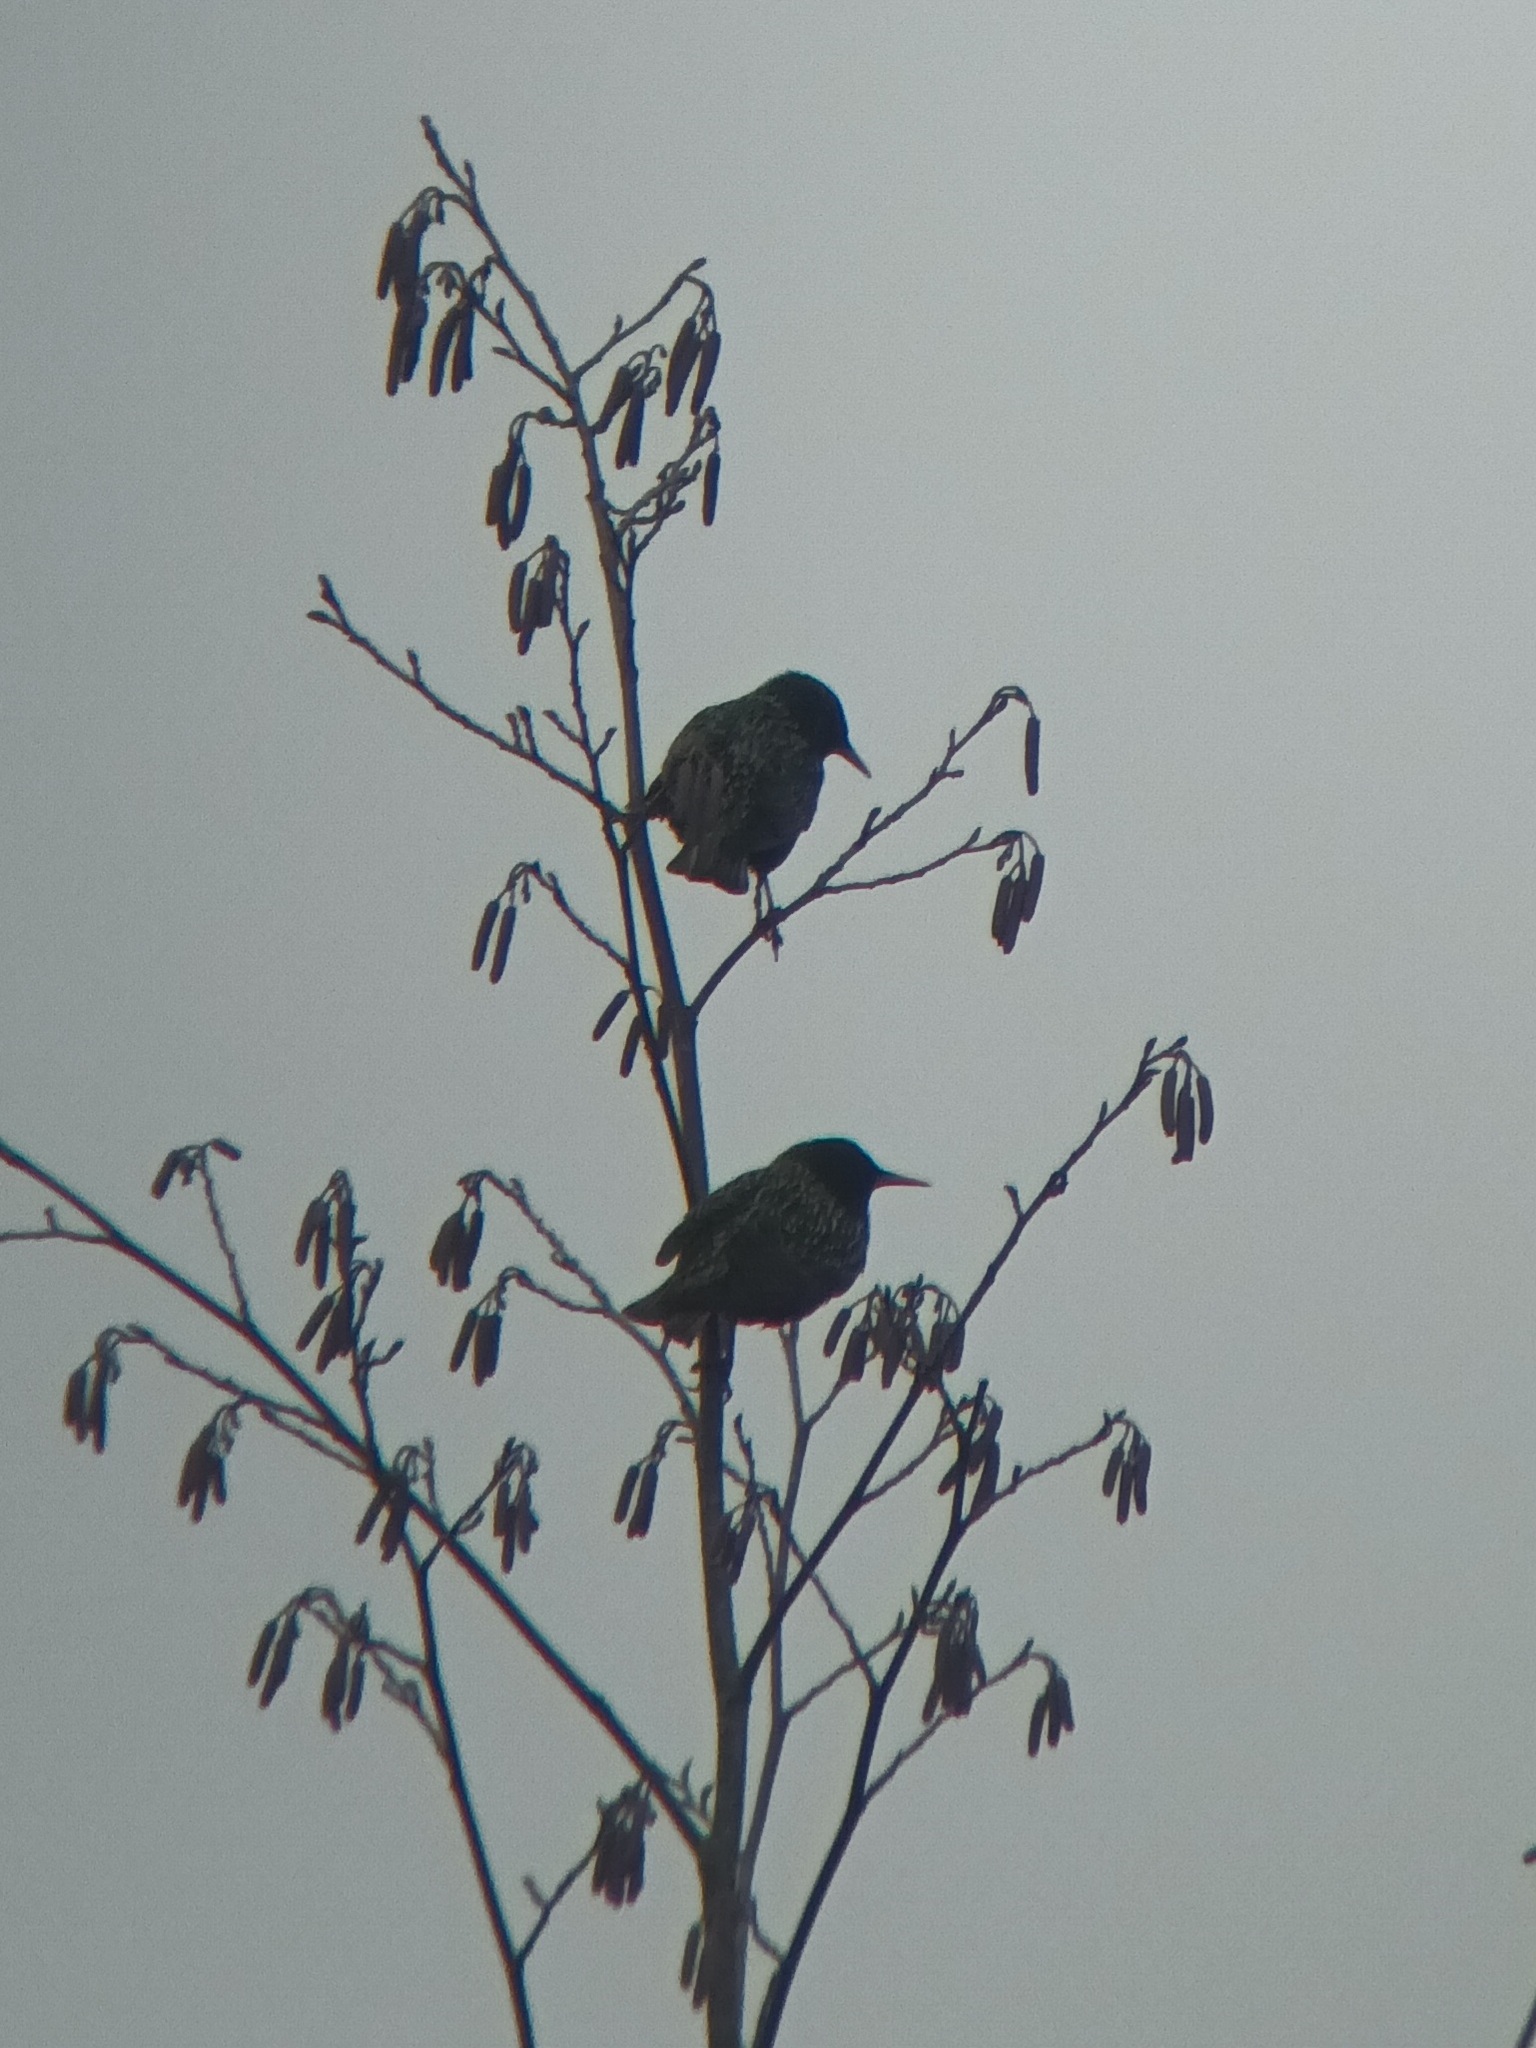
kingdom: Animalia
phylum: Chordata
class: Aves
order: Passeriformes
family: Sturnidae
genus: Sturnus
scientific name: Sturnus vulgaris
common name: Common starling
